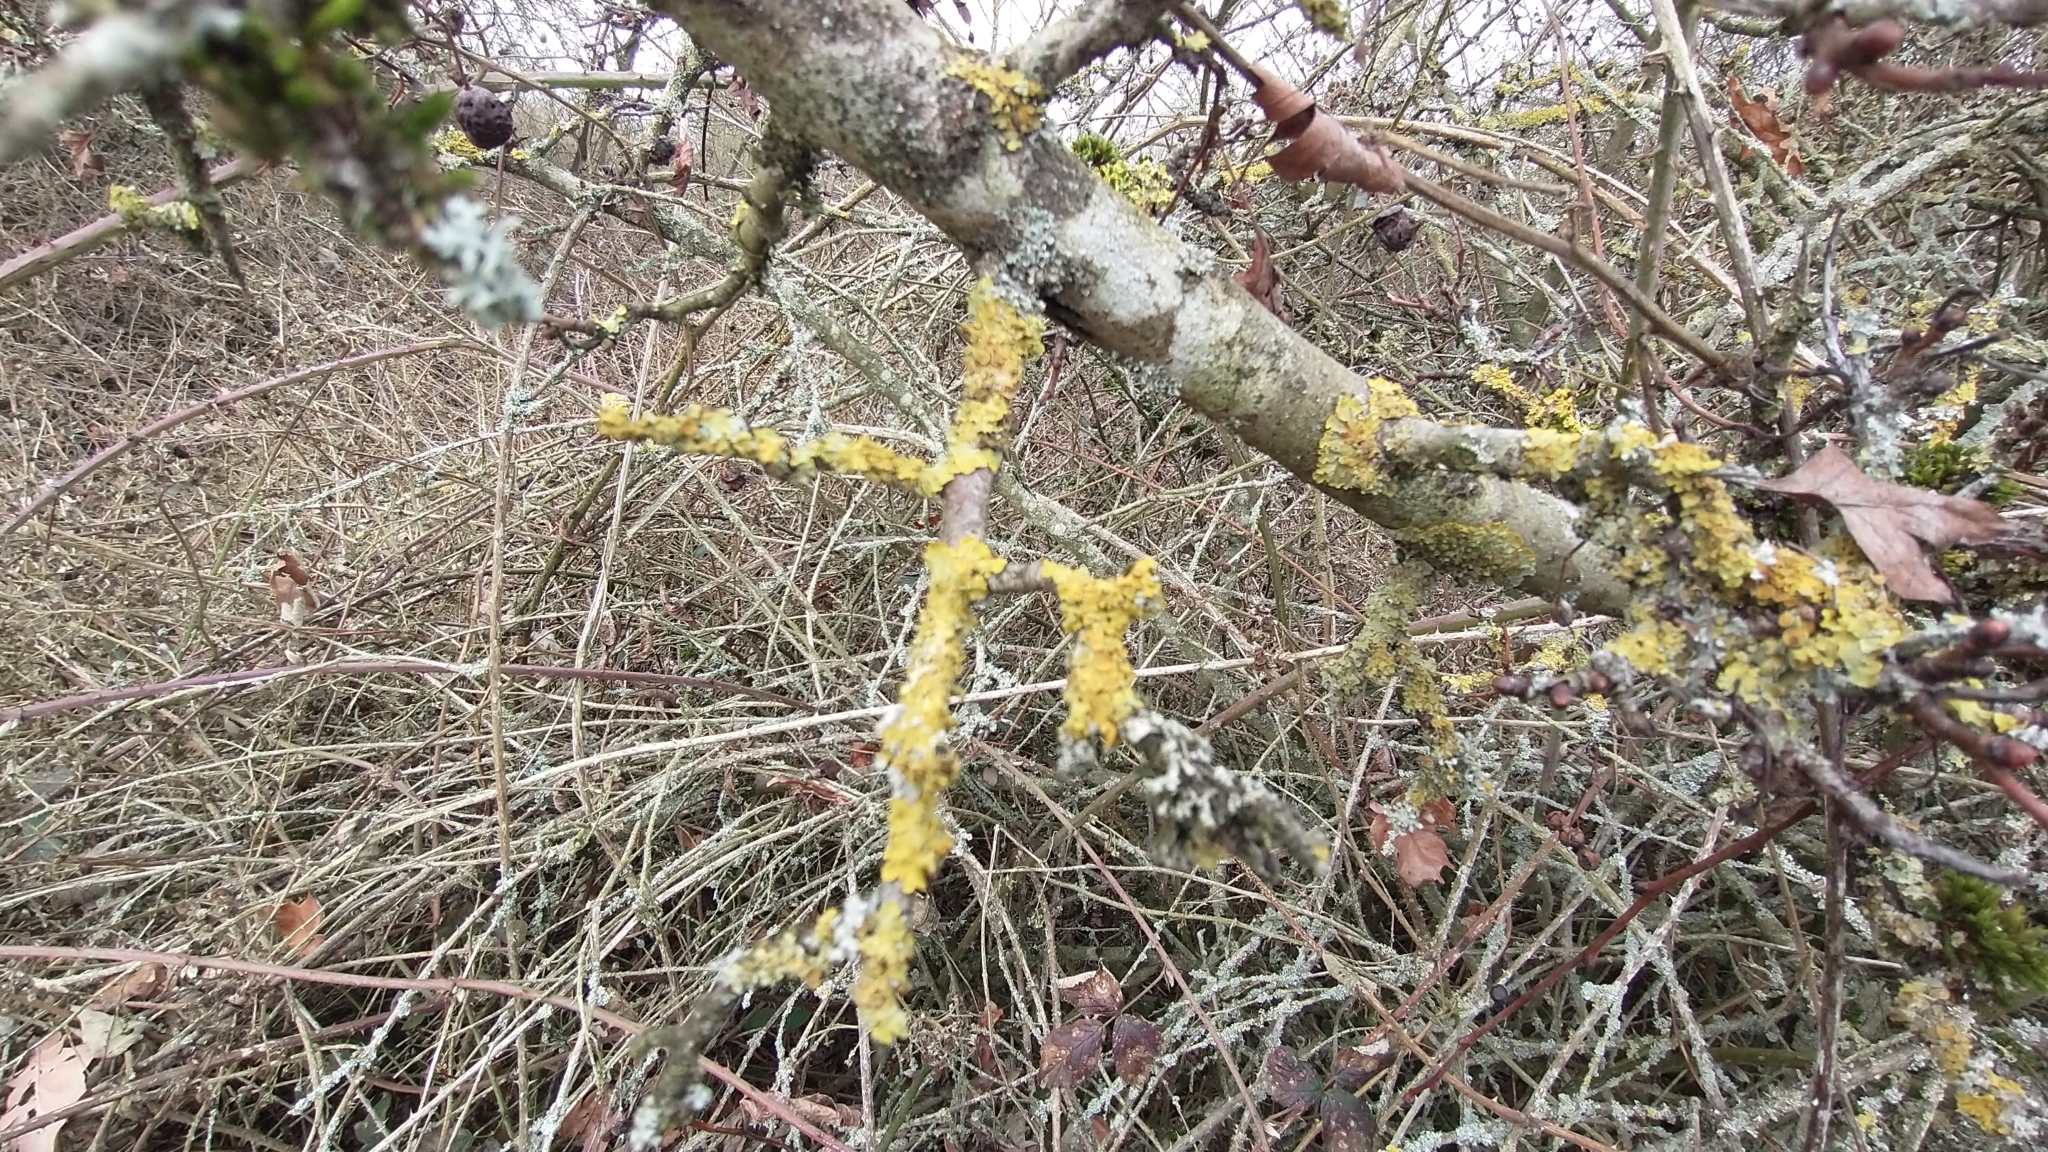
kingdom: Fungi
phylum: Ascomycota
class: Lecanoromycetes
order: Teloschistales
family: Teloschistaceae
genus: Xanthoria
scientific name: Xanthoria parietina
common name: Common orange lichen
